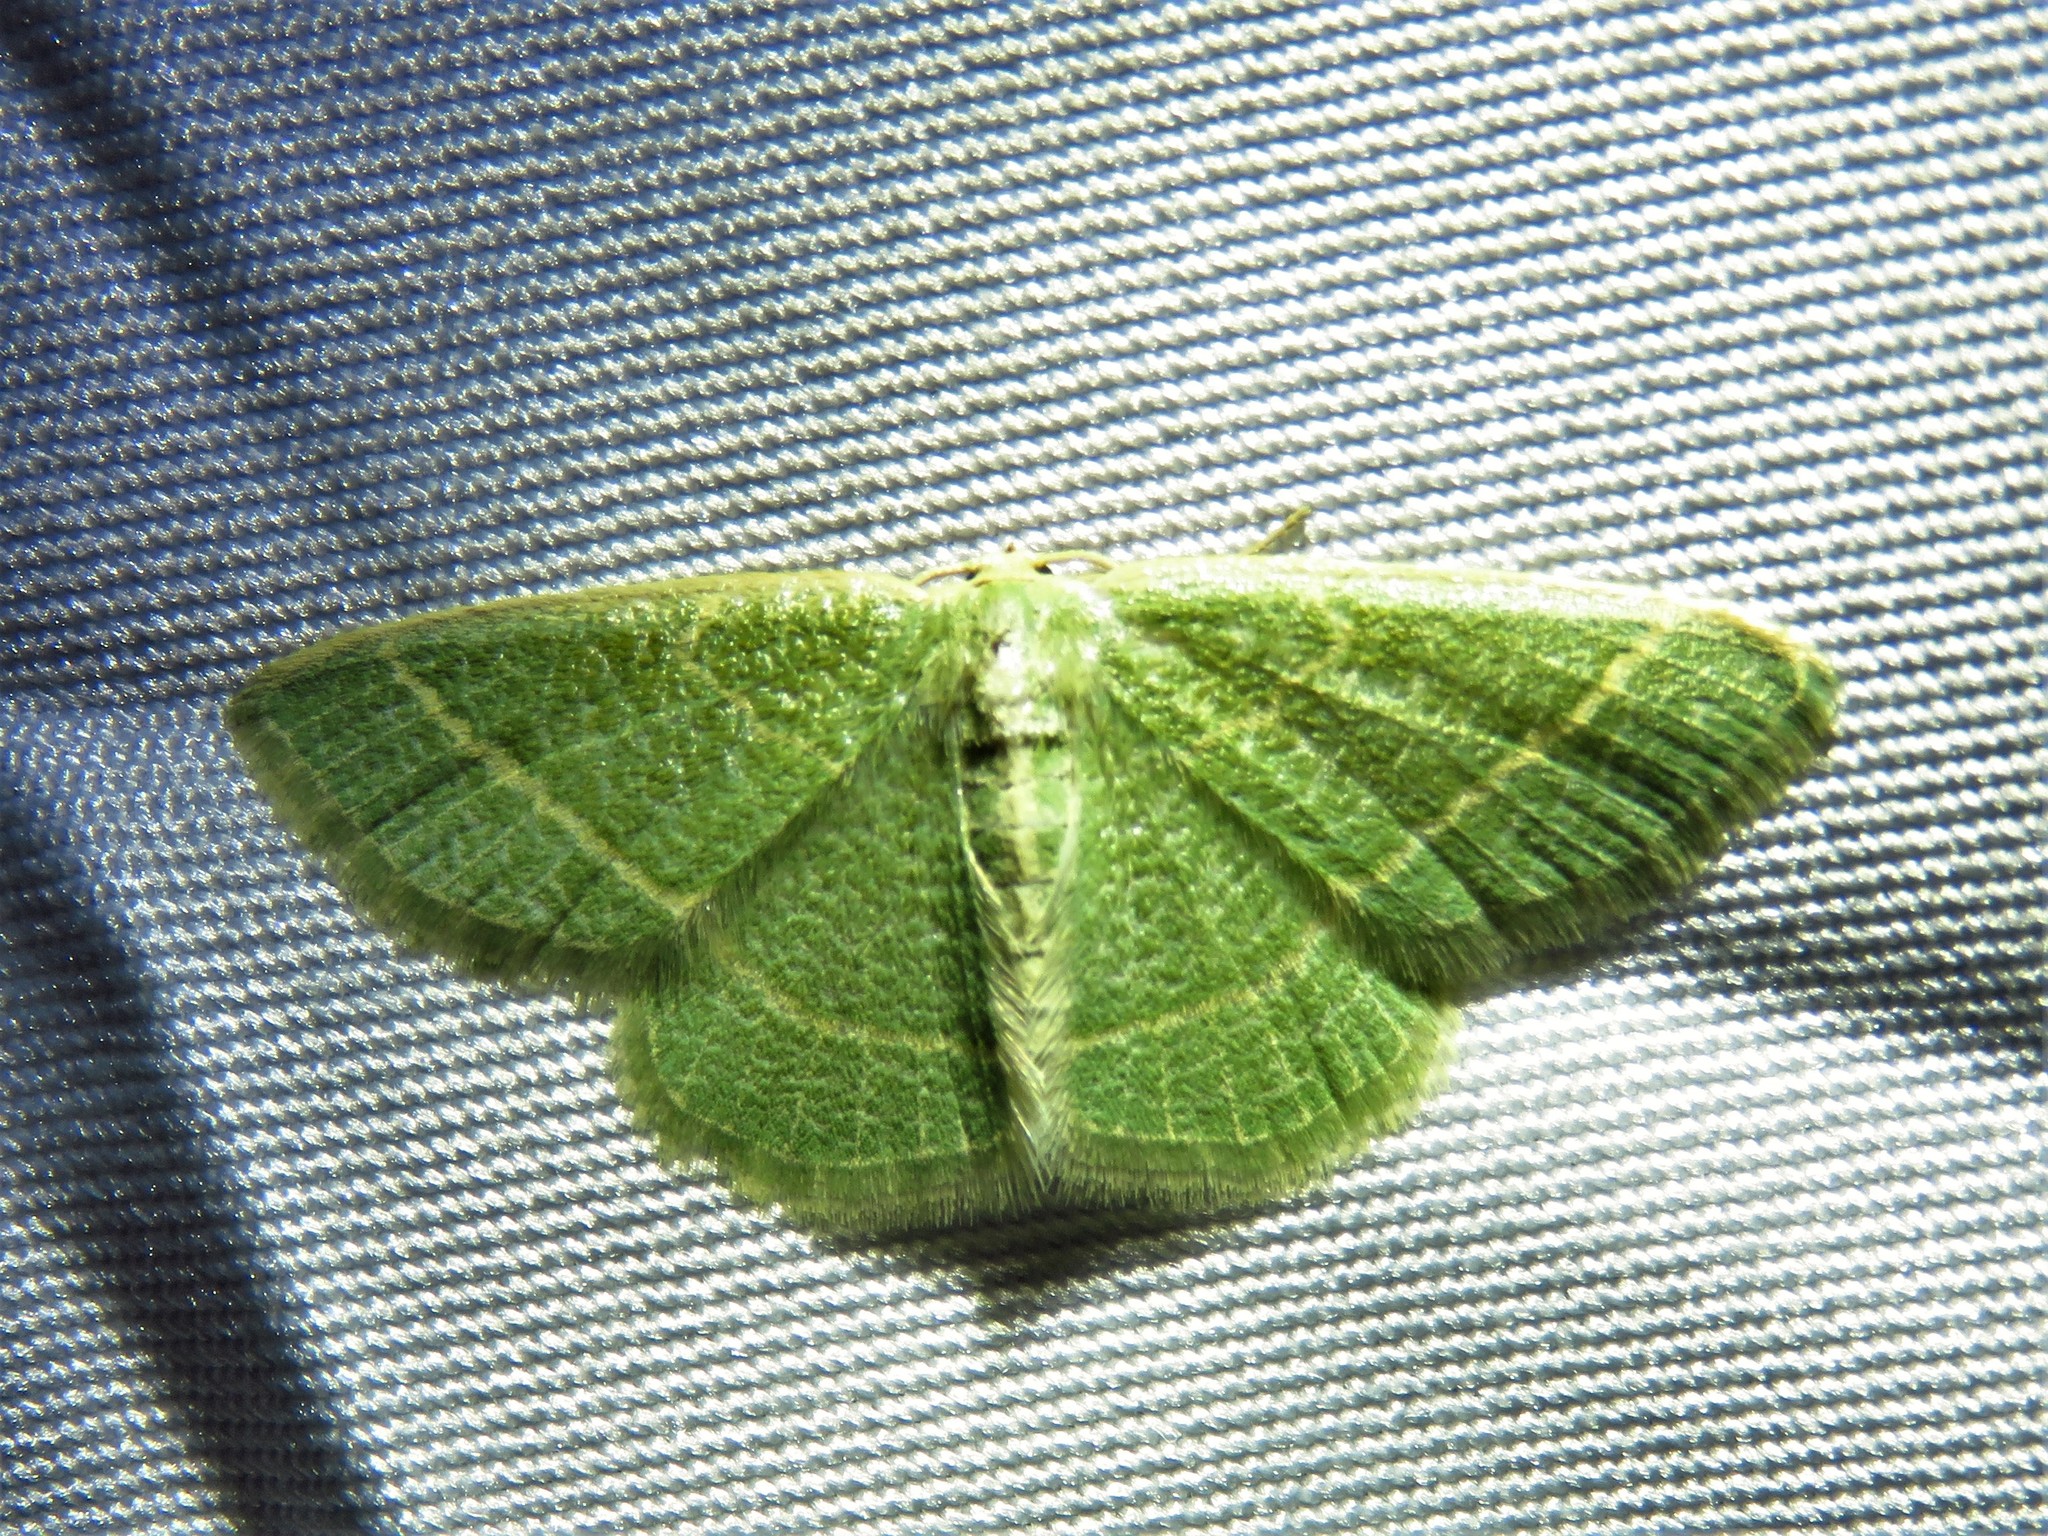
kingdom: Animalia
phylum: Arthropoda
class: Insecta
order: Lepidoptera
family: Geometridae
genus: Chlorochlamys
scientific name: Chlorochlamys chloroleucaria
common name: Blackberry looper
